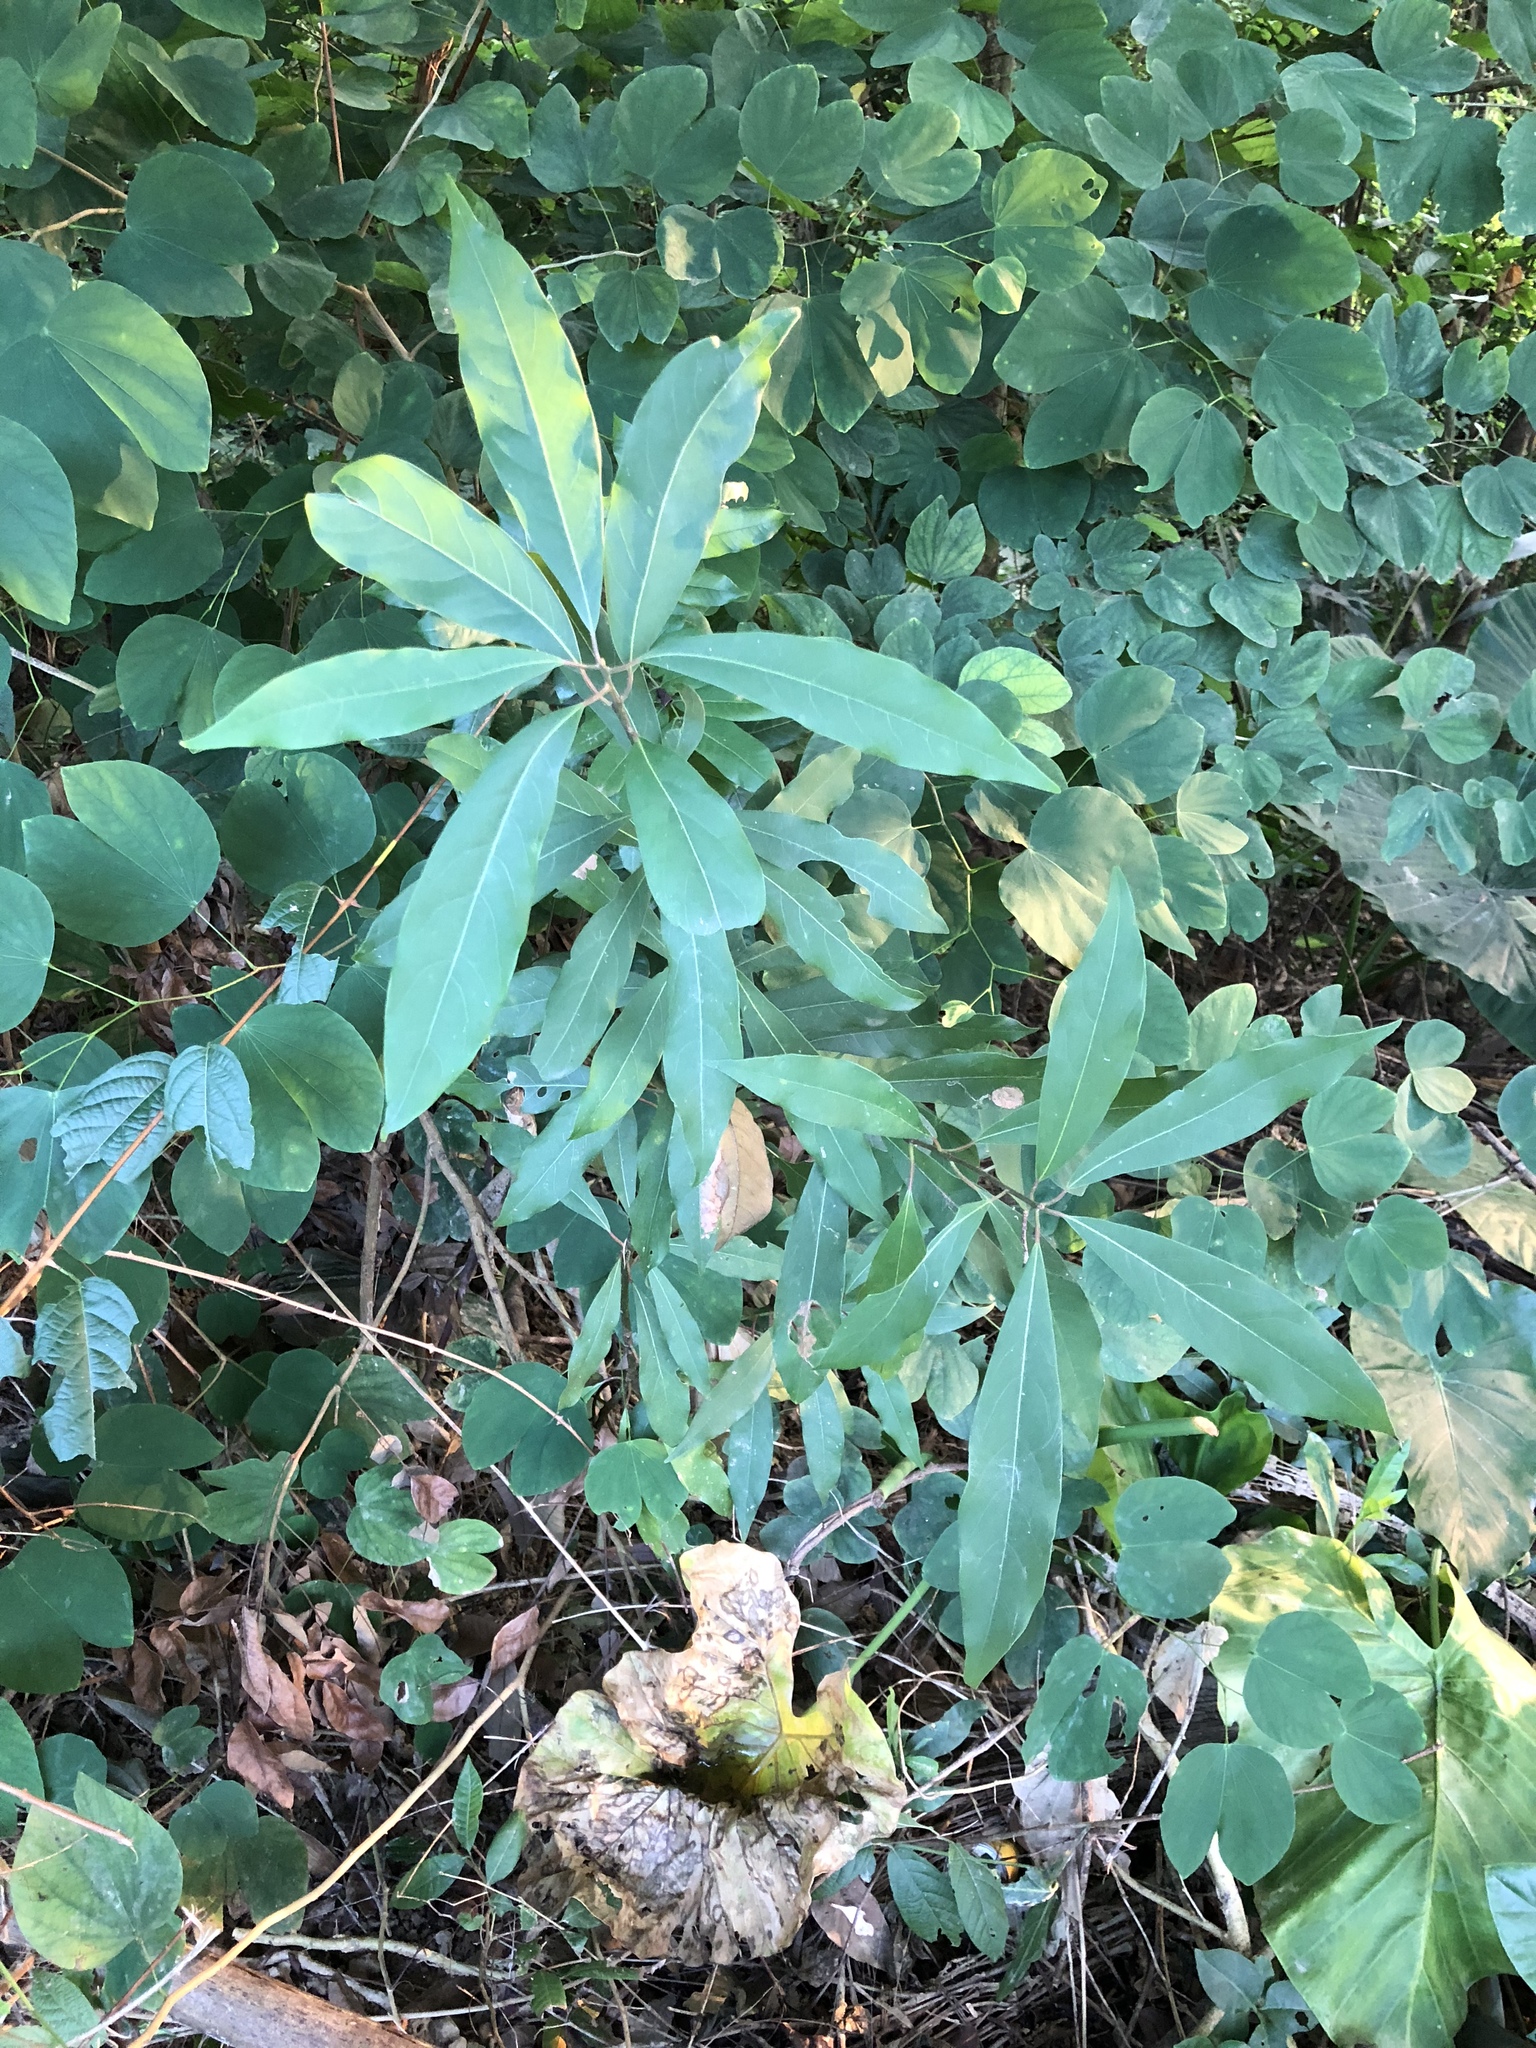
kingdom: Plantae
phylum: Tracheophyta
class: Magnoliopsida
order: Laurales
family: Lauraceae
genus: Machilus
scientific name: Machilus zuihoensis
